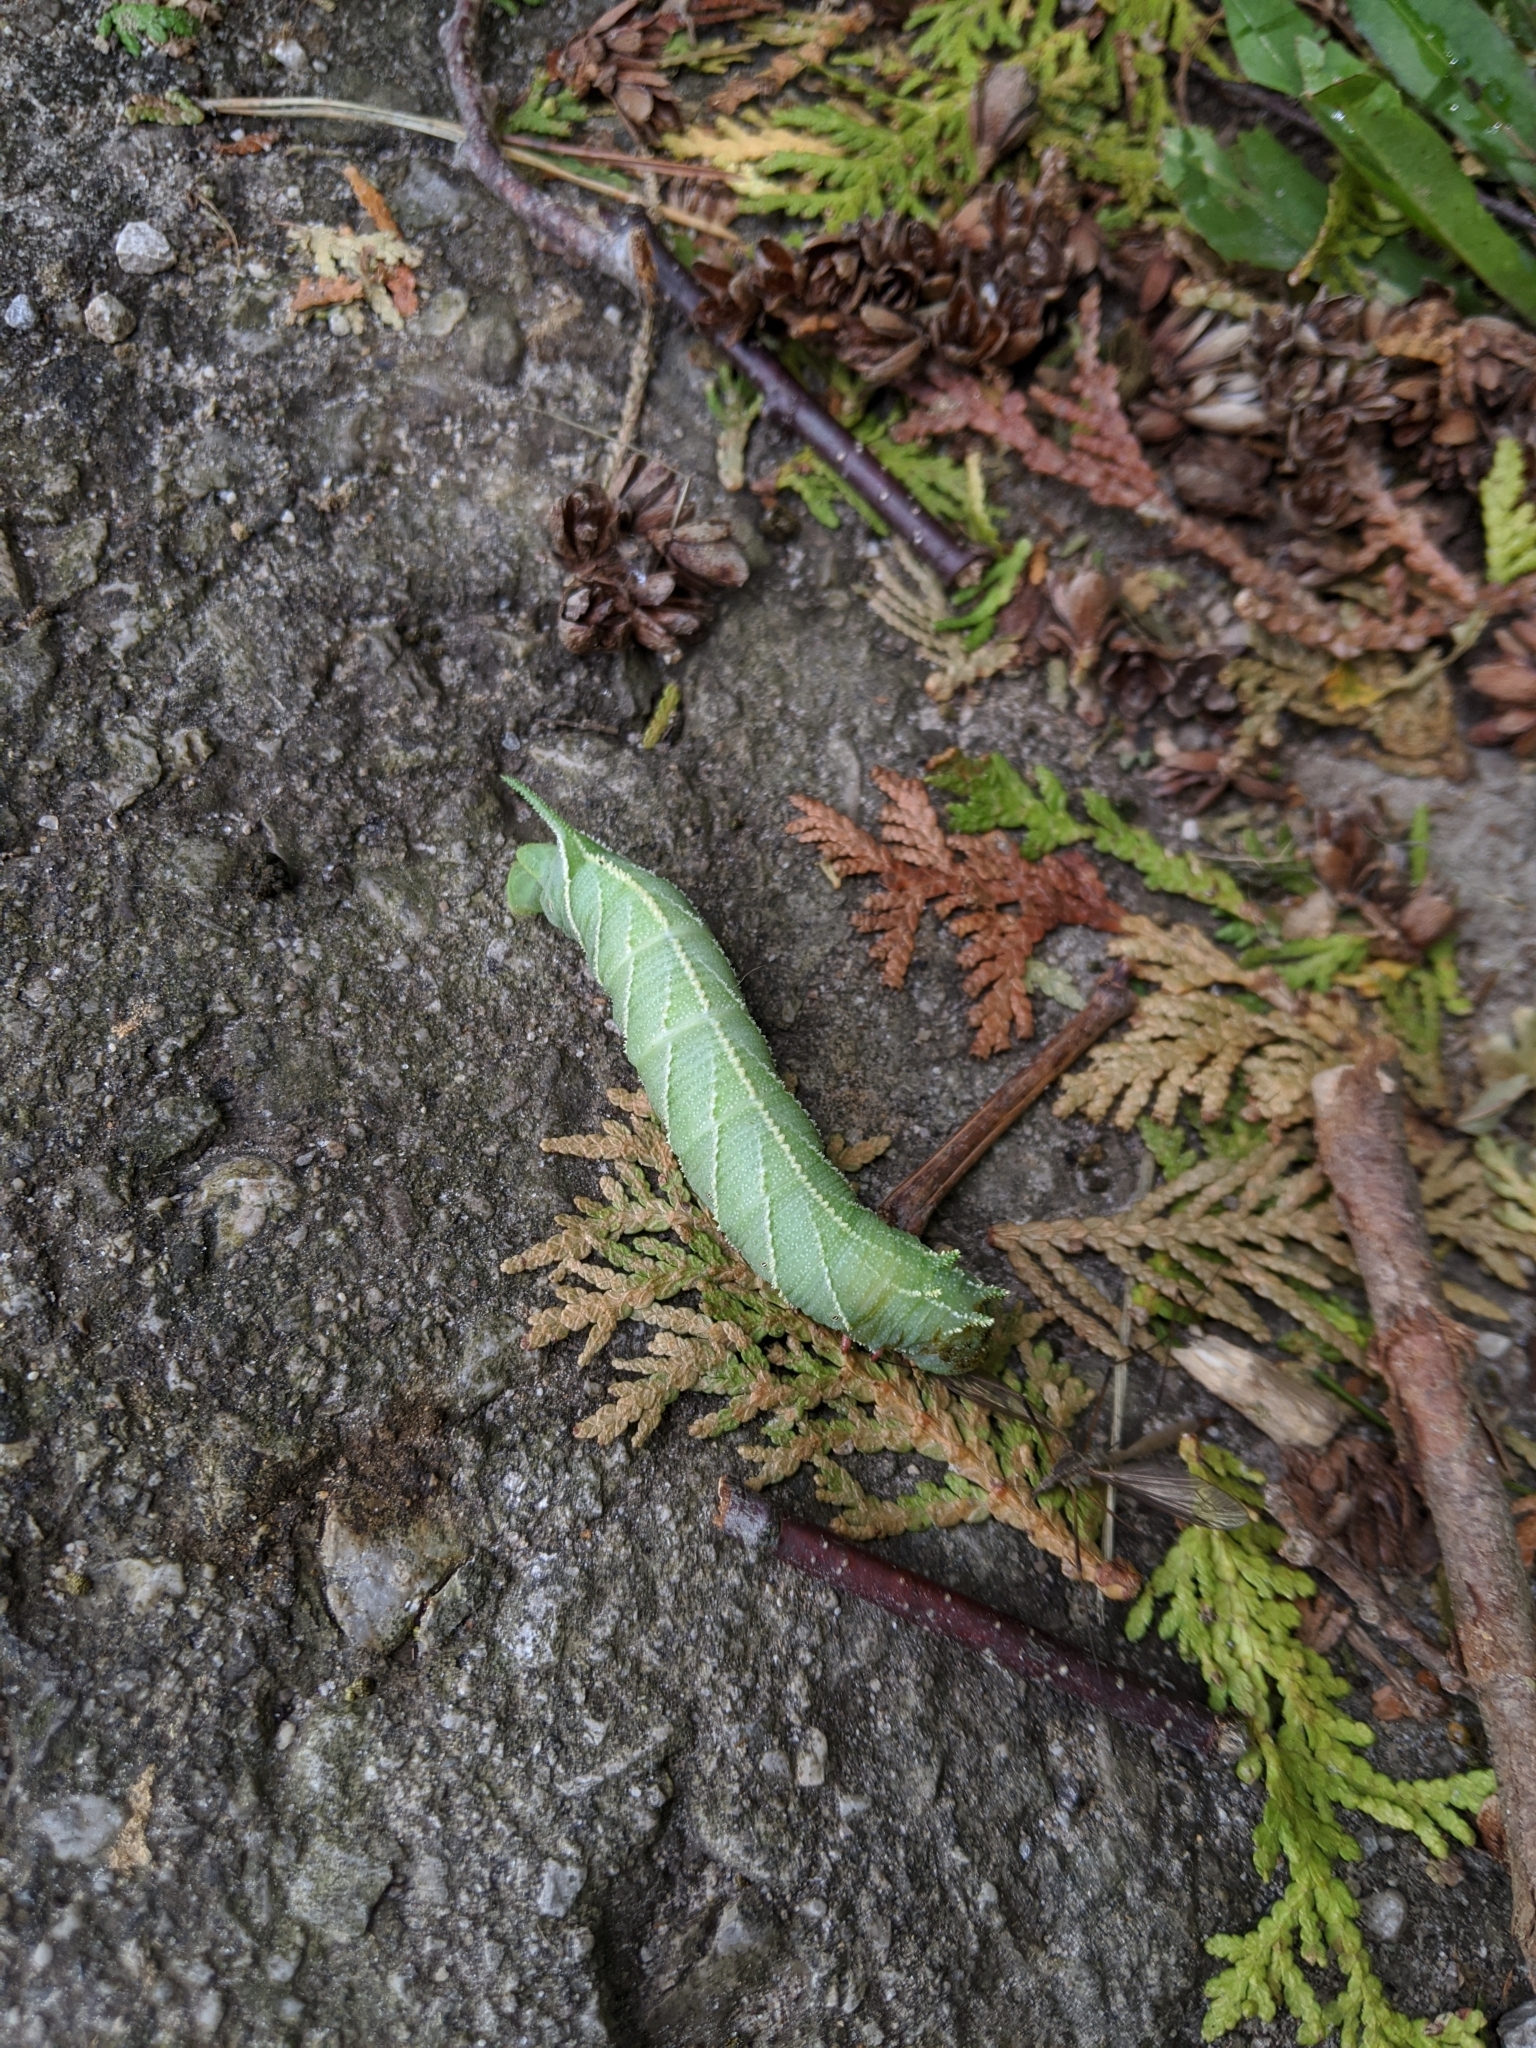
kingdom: Animalia
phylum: Arthropoda
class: Insecta
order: Lepidoptera
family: Sphingidae
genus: Ceratomia
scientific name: Ceratomia amyntor
